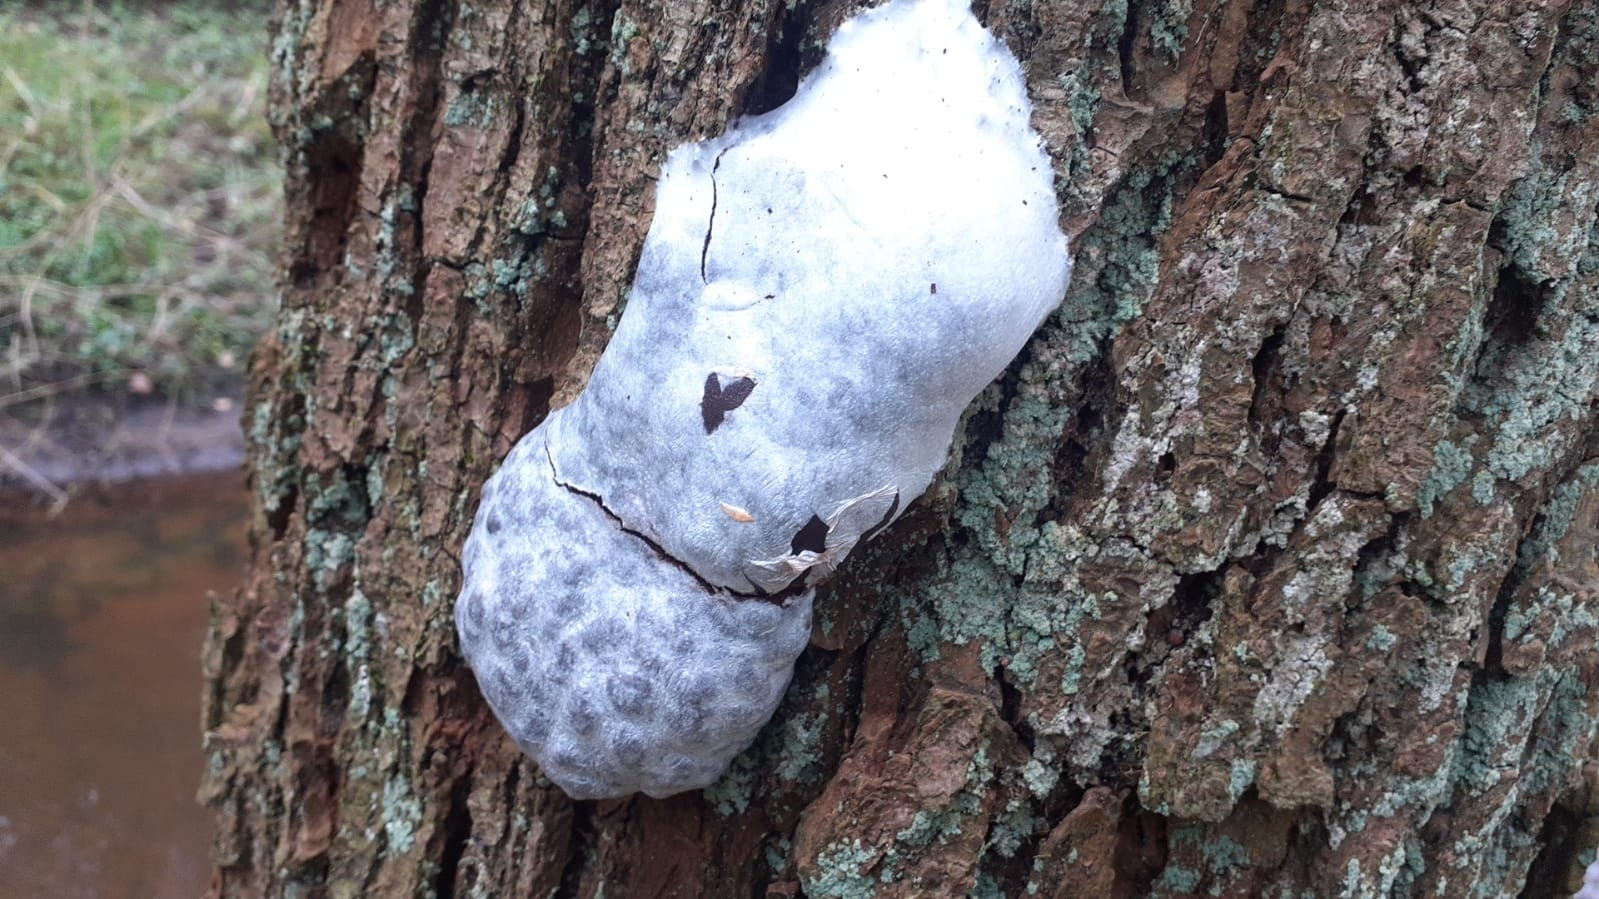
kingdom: Protozoa
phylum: Mycetozoa
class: Myxomycetes
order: Cribrariales
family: Tubiferaceae
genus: Reticularia
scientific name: Reticularia lycoperdon
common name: False puffball
